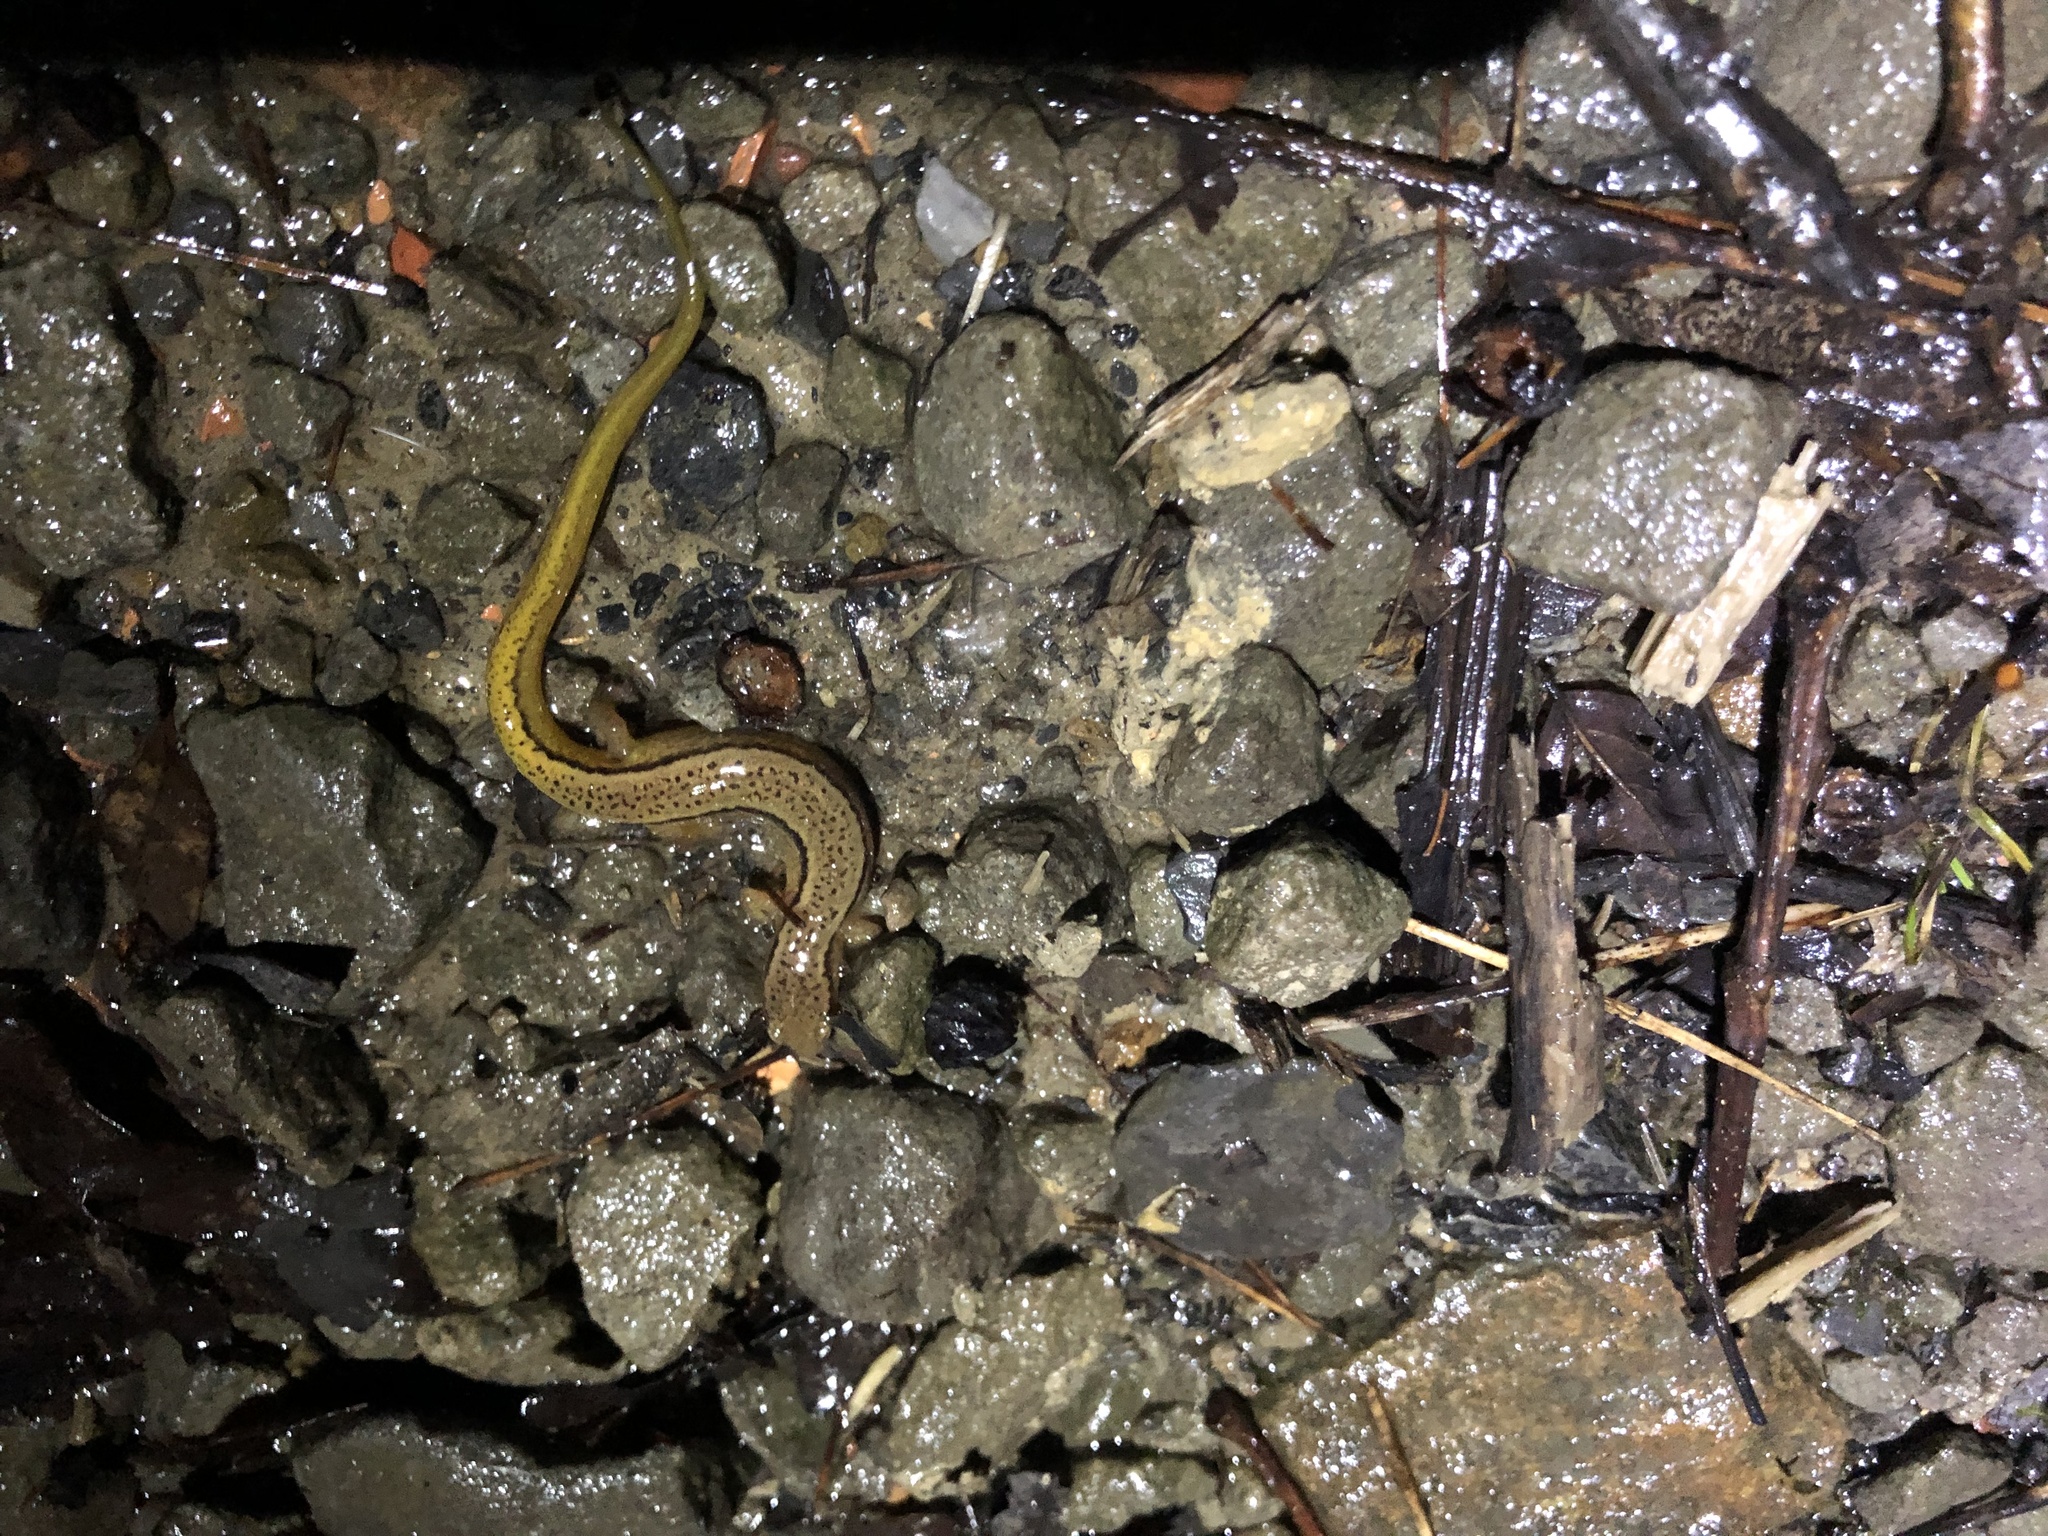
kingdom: Animalia
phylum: Chordata
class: Amphibia
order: Caudata
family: Plethodontidae
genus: Eurycea
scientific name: Eurycea cirrigera
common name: Southern two-lined salamander
